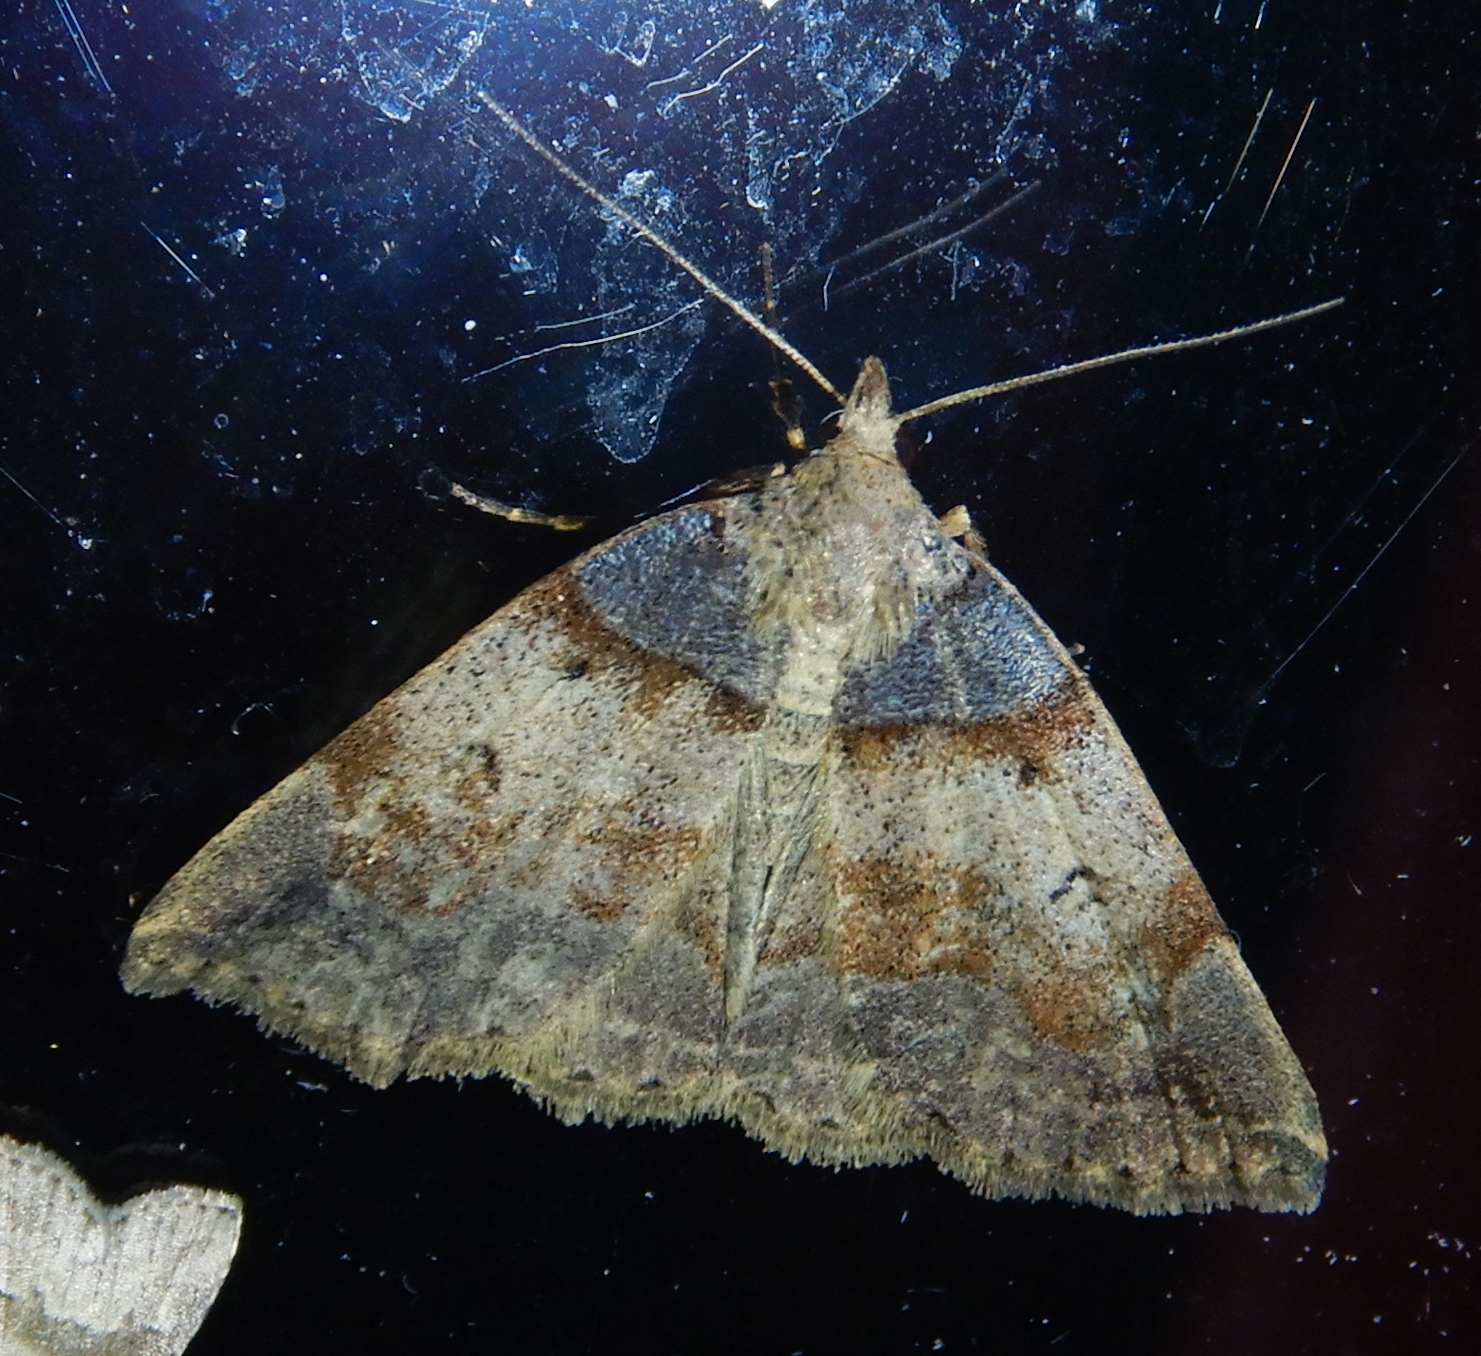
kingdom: Animalia
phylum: Arthropoda
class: Insecta
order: Lepidoptera
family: Erebidae
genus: Zanclognatha
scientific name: Zanclognatha laevigata
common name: Variable fan-foot
